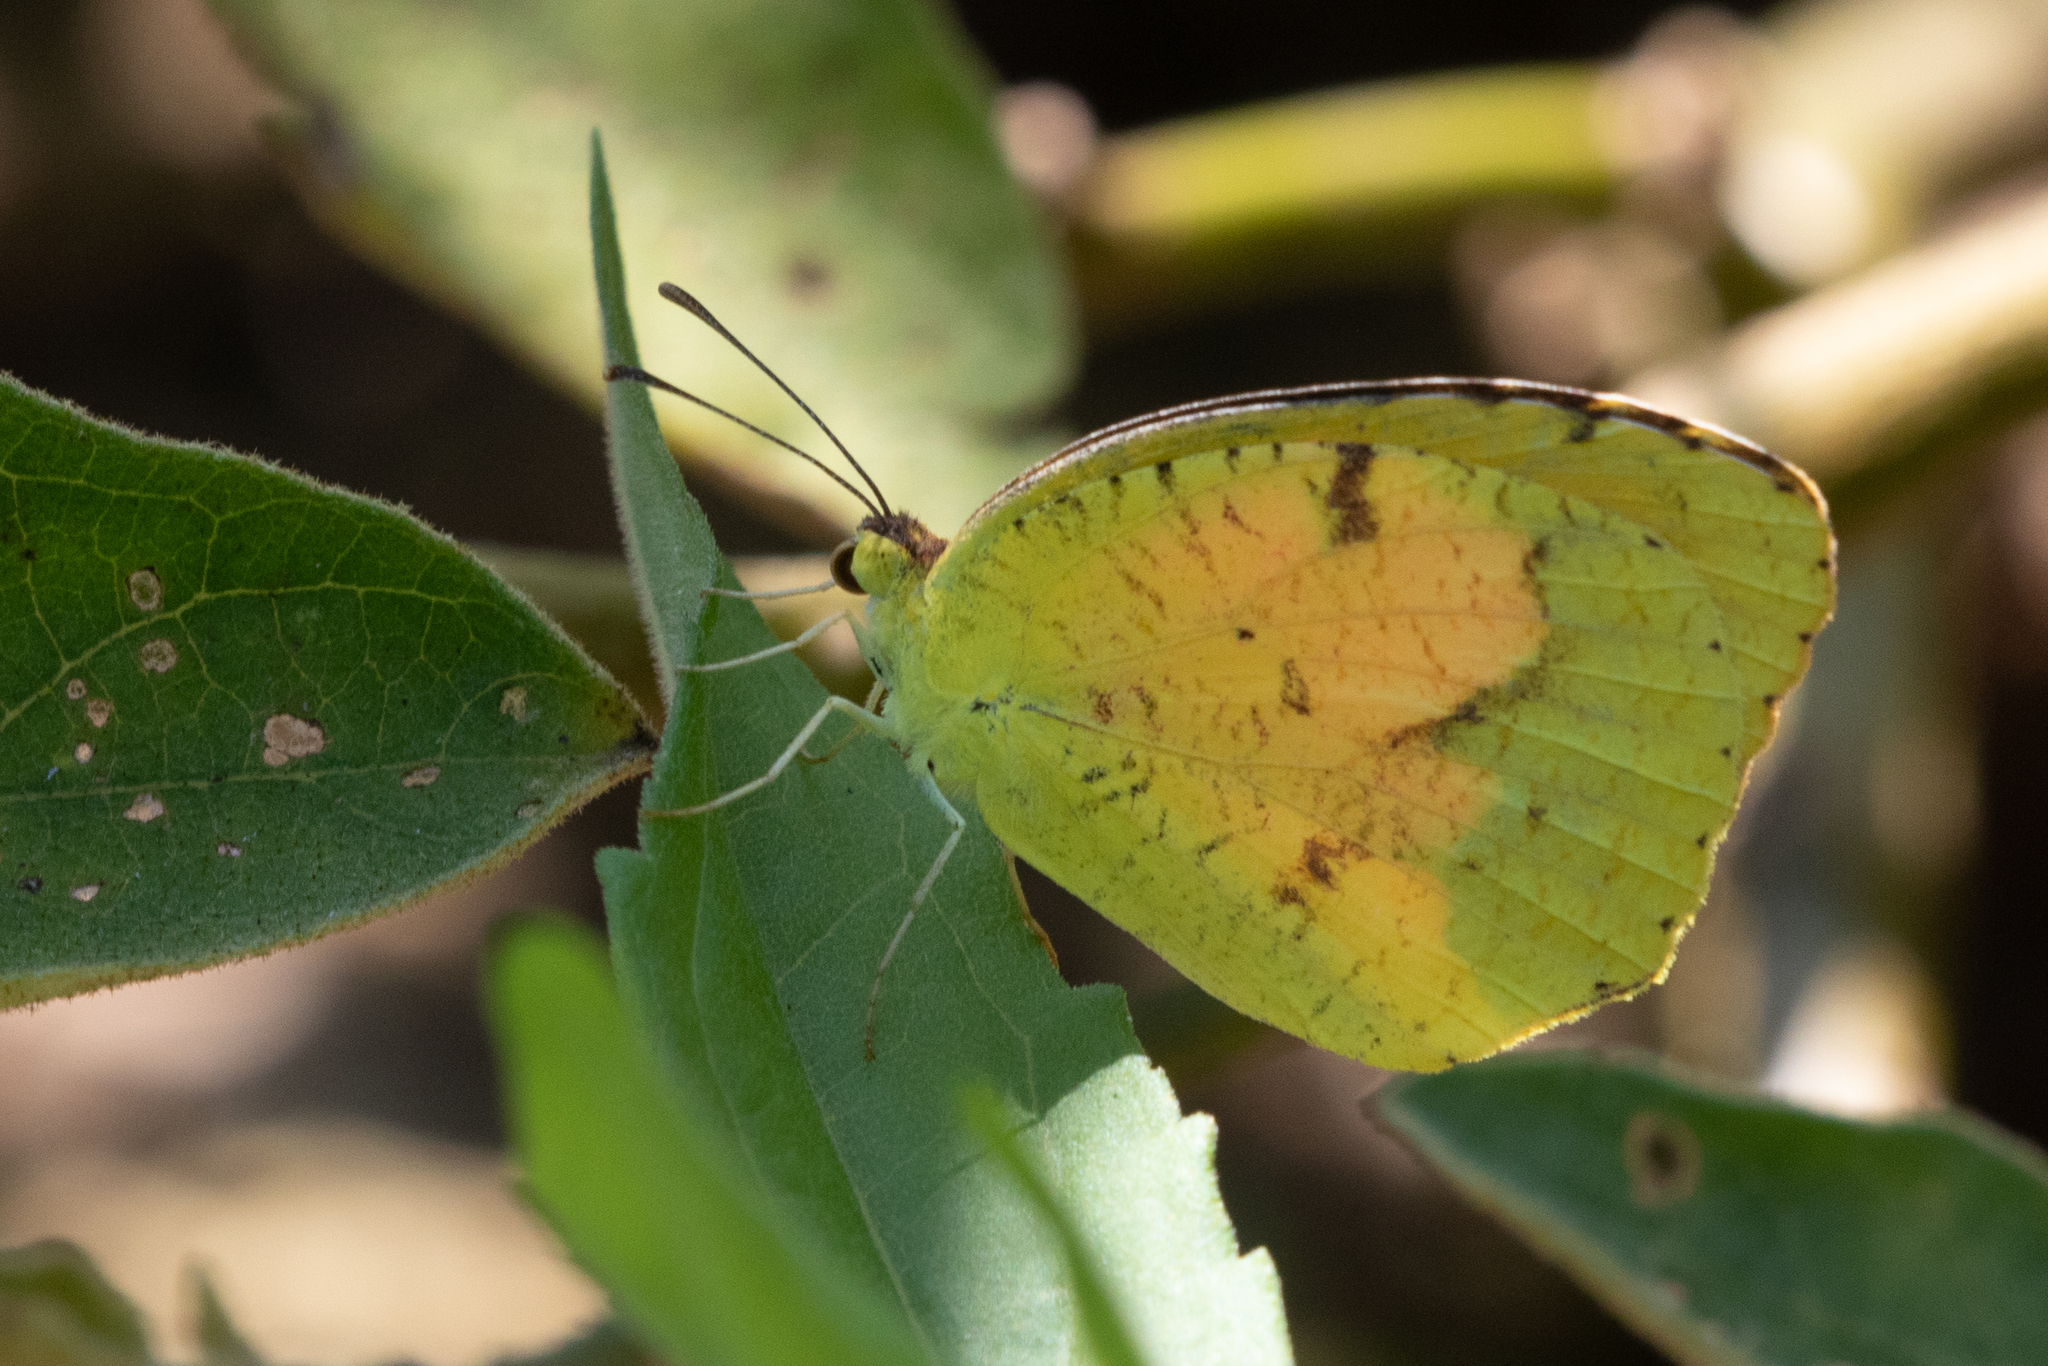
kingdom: Animalia
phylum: Arthropoda
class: Insecta
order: Lepidoptera
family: Pieridae
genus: Abaeis
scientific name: Abaeis nicippe
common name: Sleepy orange
